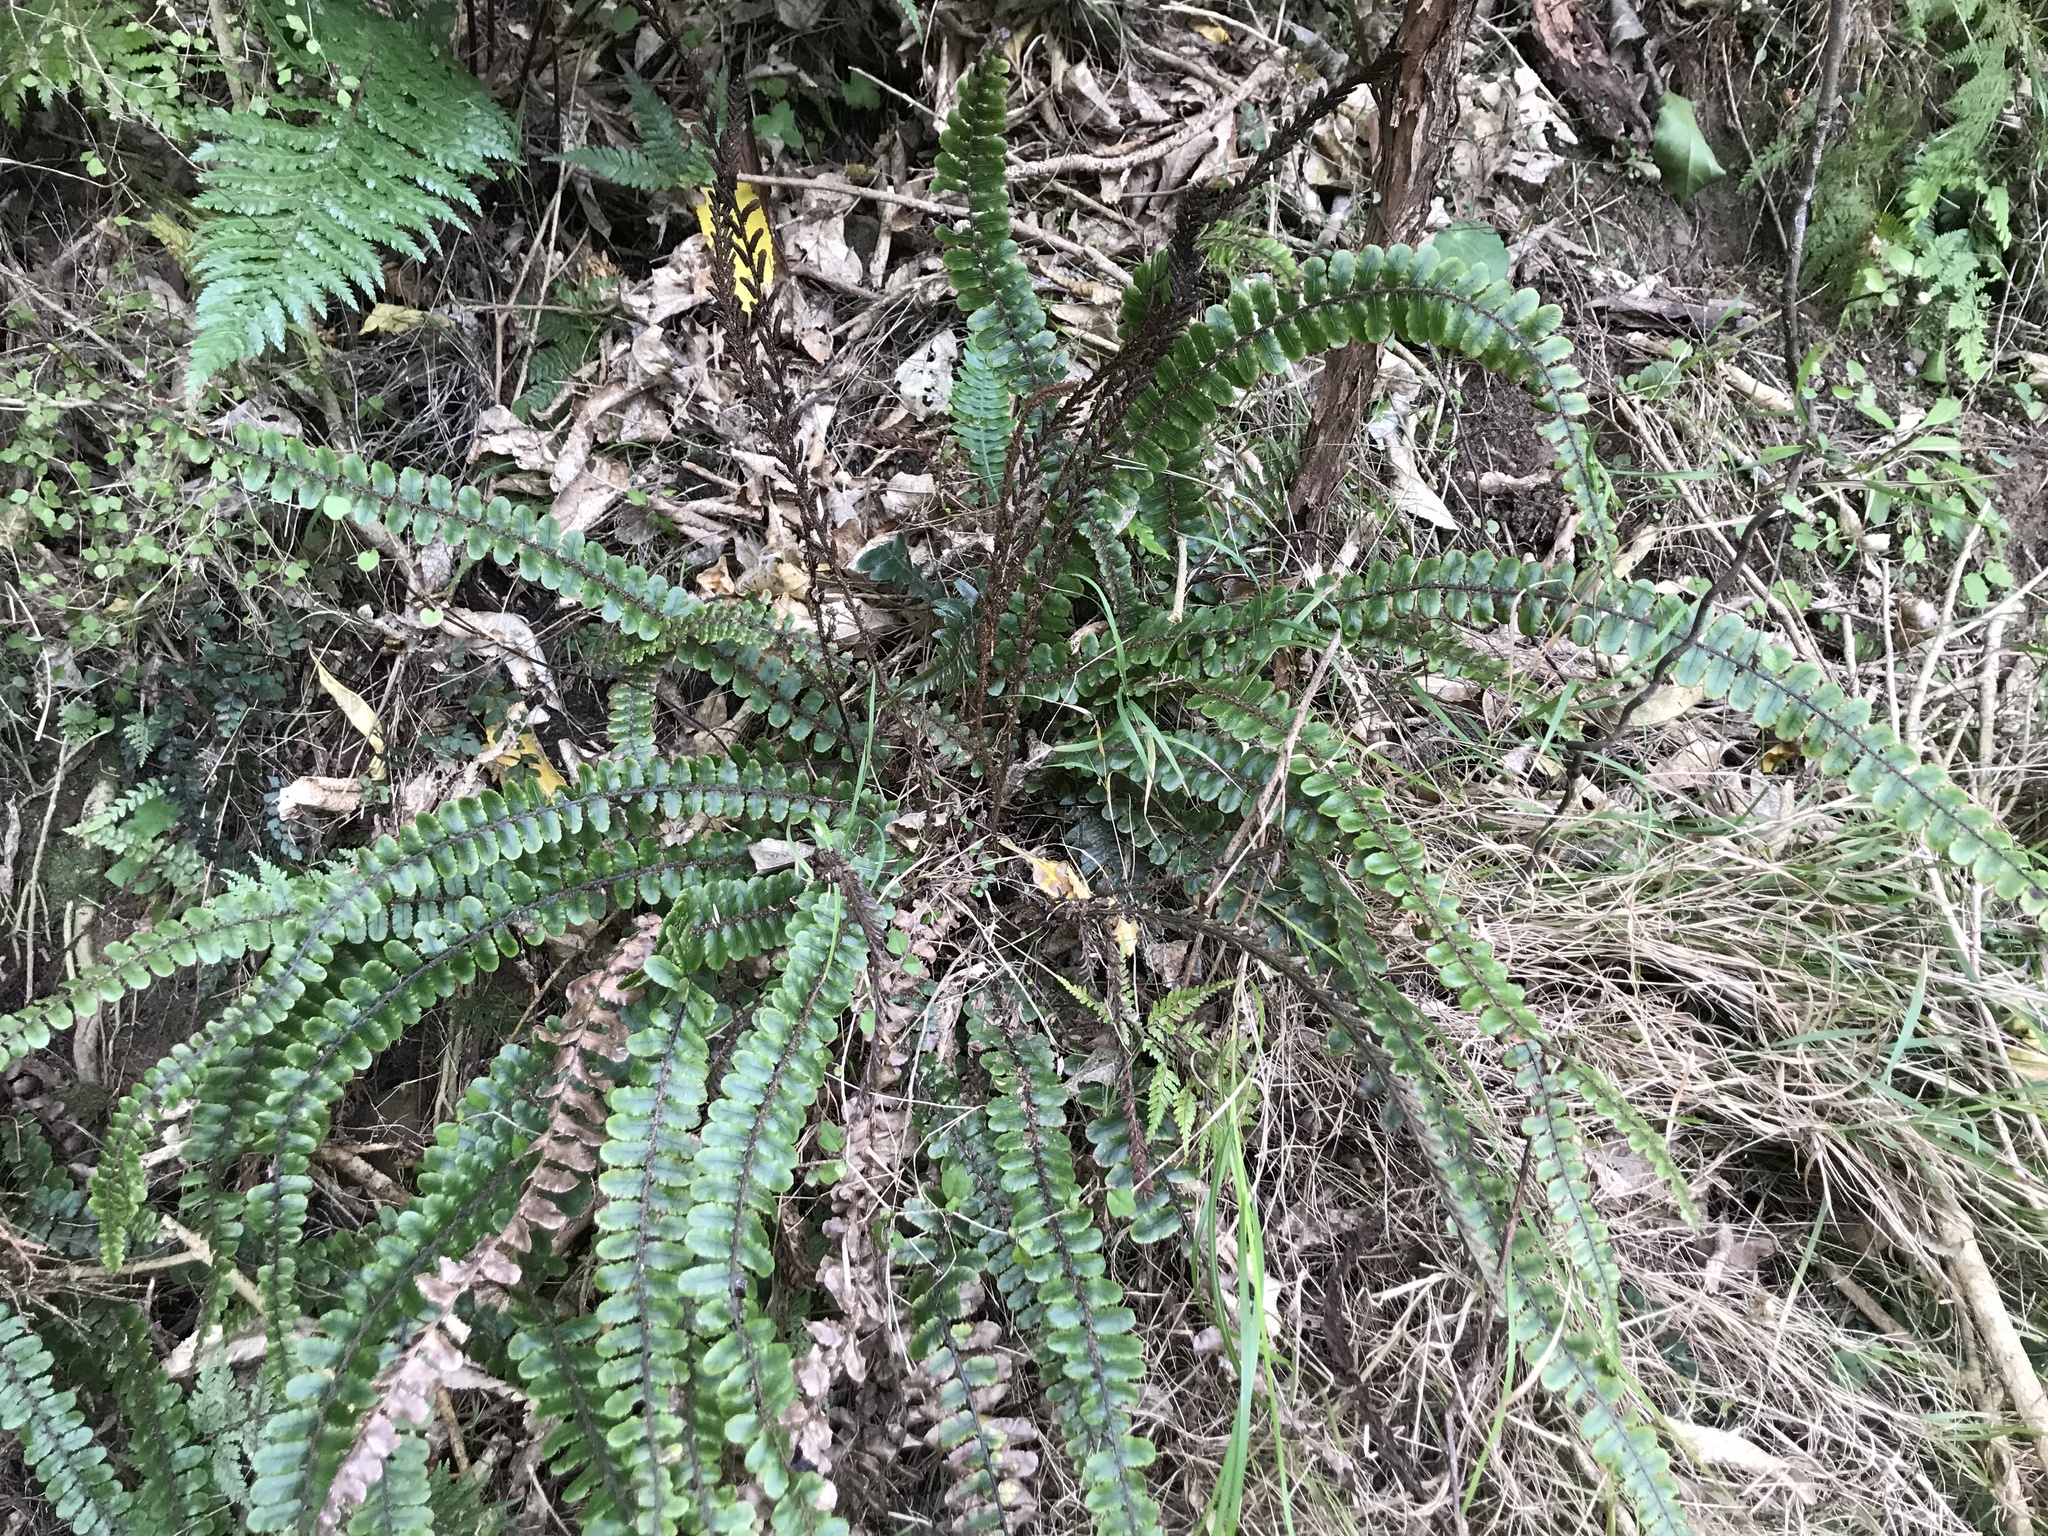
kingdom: Plantae
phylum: Tracheophyta
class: Polypodiopsida
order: Polypodiales
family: Blechnaceae
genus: Cranfillia
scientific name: Cranfillia fluviatilis
